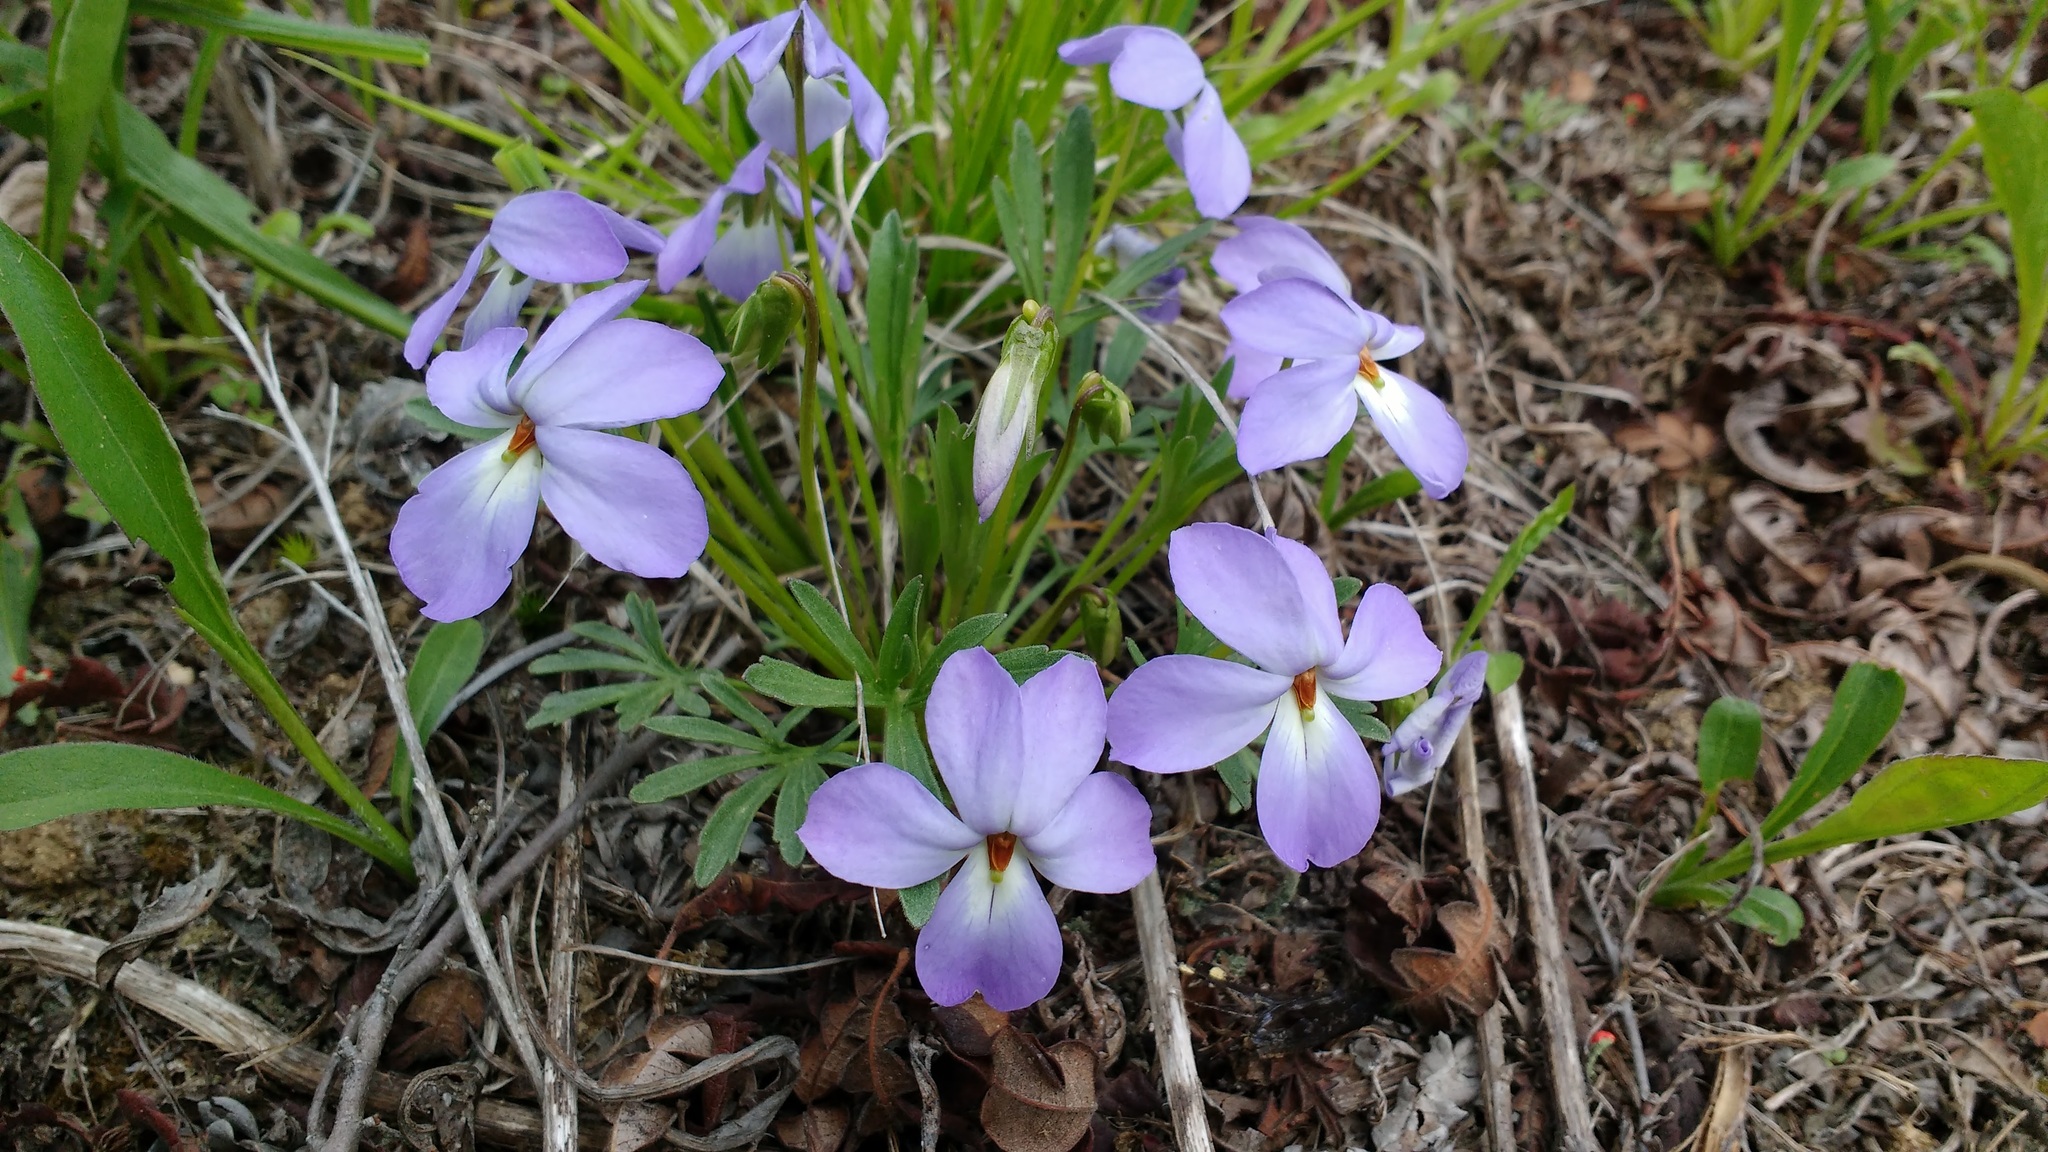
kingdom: Plantae
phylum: Tracheophyta
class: Magnoliopsida
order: Malpighiales
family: Violaceae
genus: Viola
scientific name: Viola pedata
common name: Pansy violet
